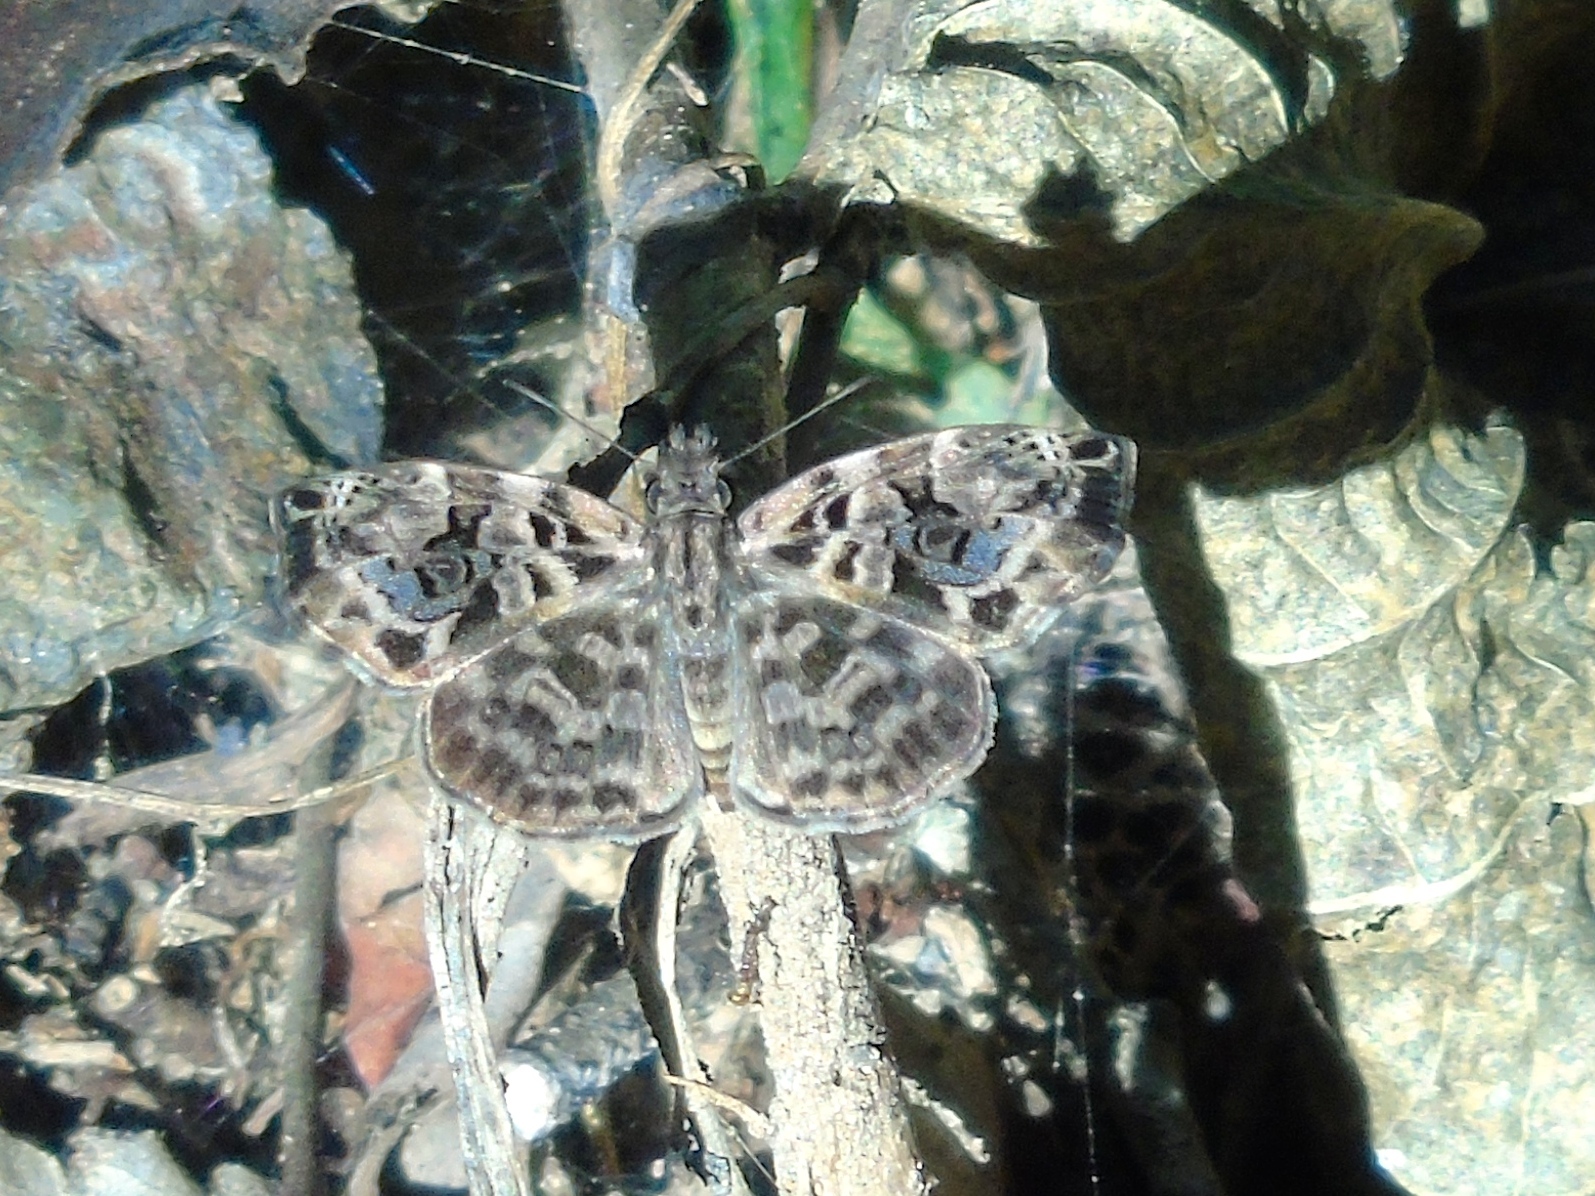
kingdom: Animalia
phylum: Arthropoda
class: Insecta
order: Lepidoptera
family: Hesperiidae
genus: Gorgythion
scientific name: Gorgythion begga
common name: Variegated skipper
